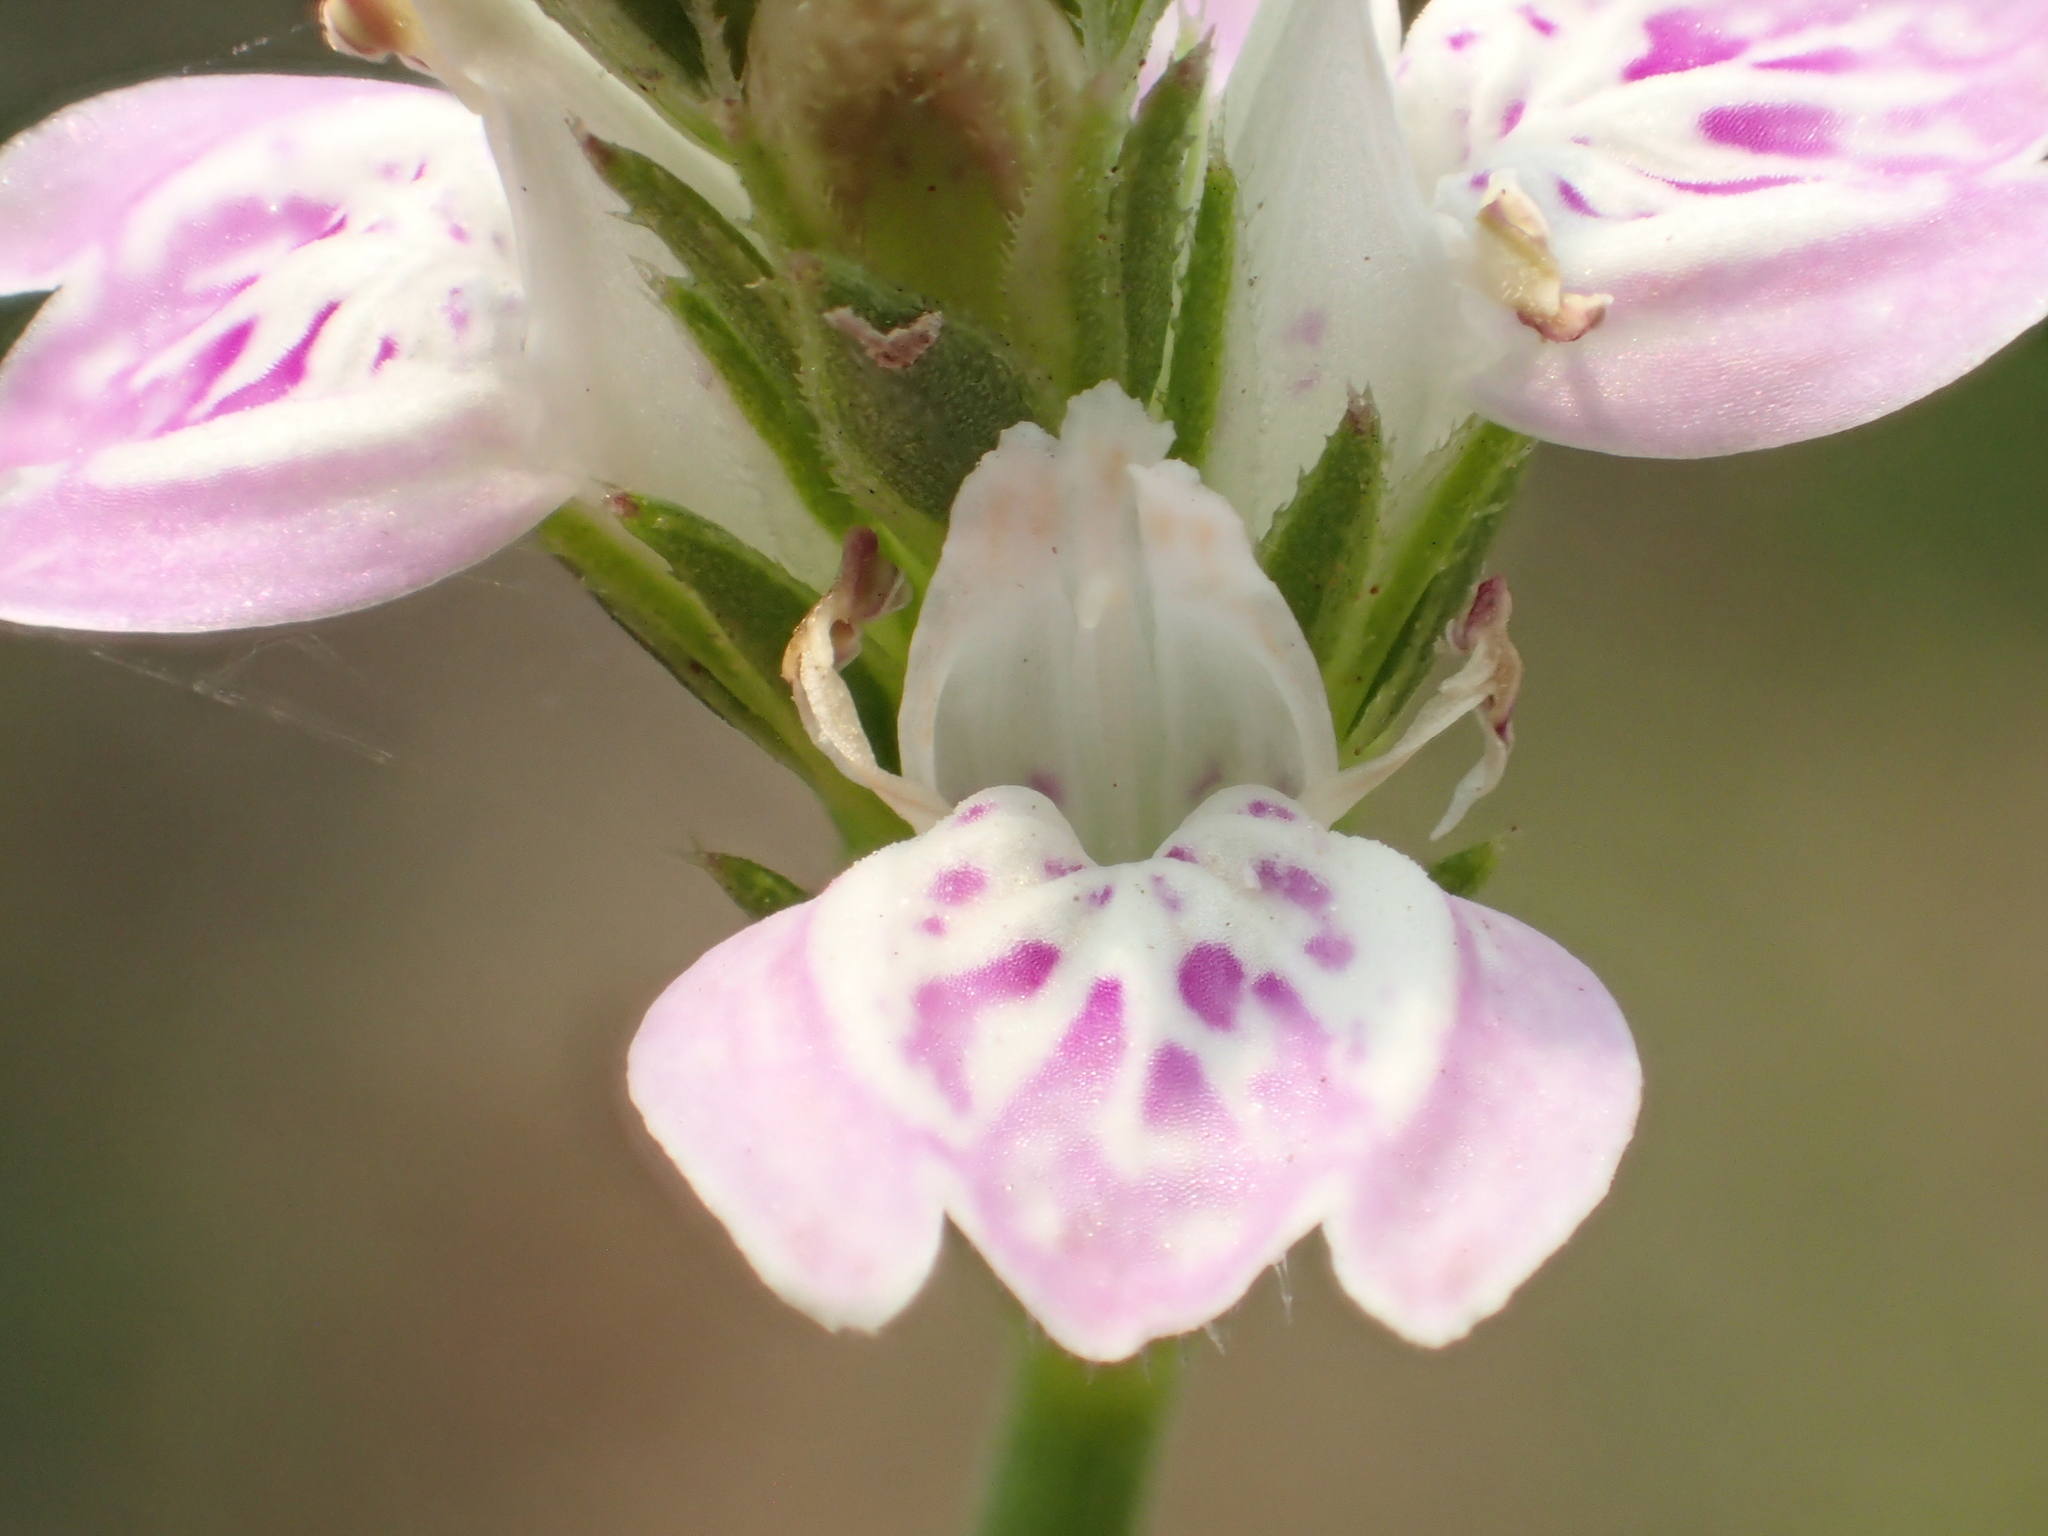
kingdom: Plantae
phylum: Tracheophyta
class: Magnoliopsida
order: Lamiales
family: Acanthaceae
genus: Rostellularia
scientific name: Rostellularia hayatae
